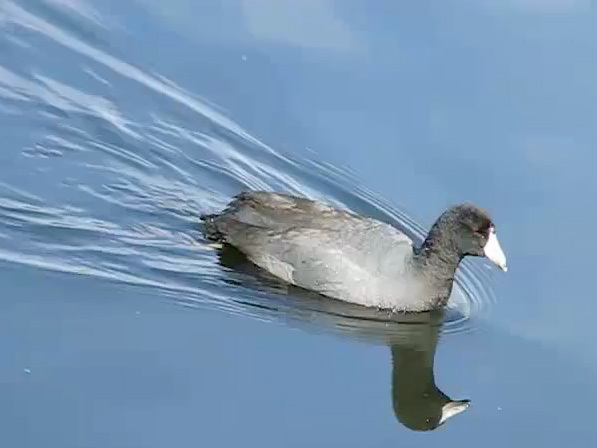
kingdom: Animalia
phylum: Chordata
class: Aves
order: Gruiformes
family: Rallidae
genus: Fulica
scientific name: Fulica americana
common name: American coot
